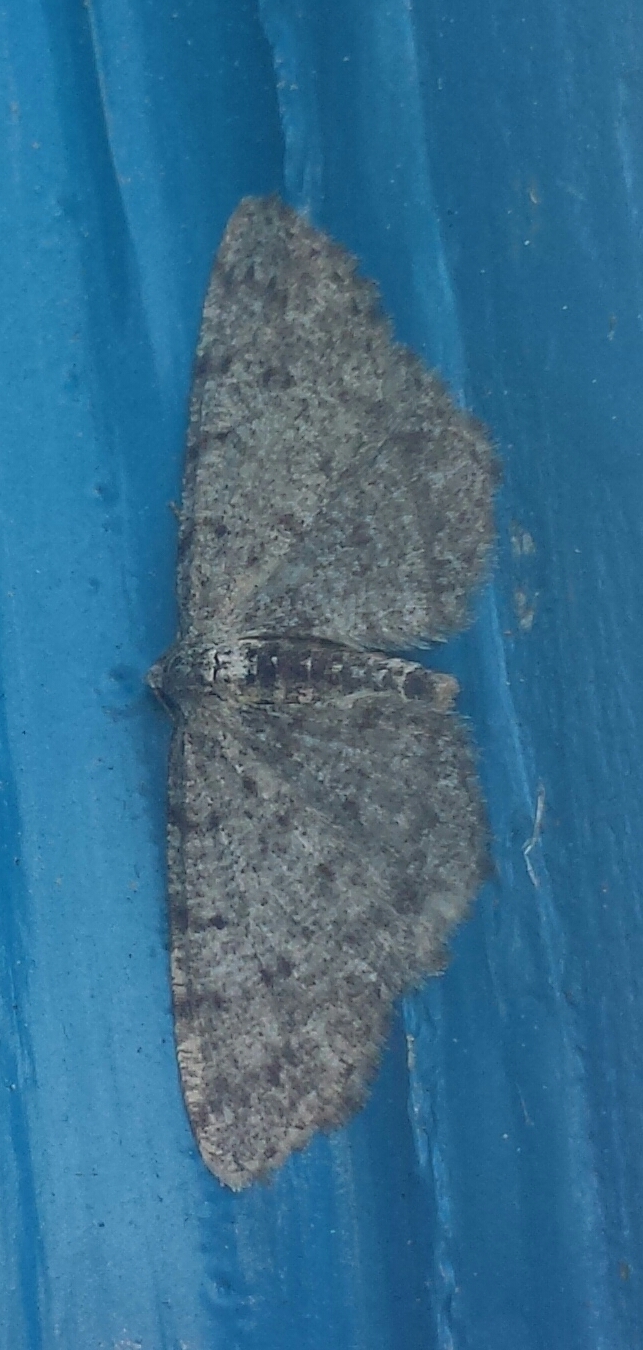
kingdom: Animalia
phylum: Arthropoda
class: Insecta
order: Lepidoptera
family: Geometridae
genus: Aethalura
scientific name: Aethalura intertexta
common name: Four-barred gray
